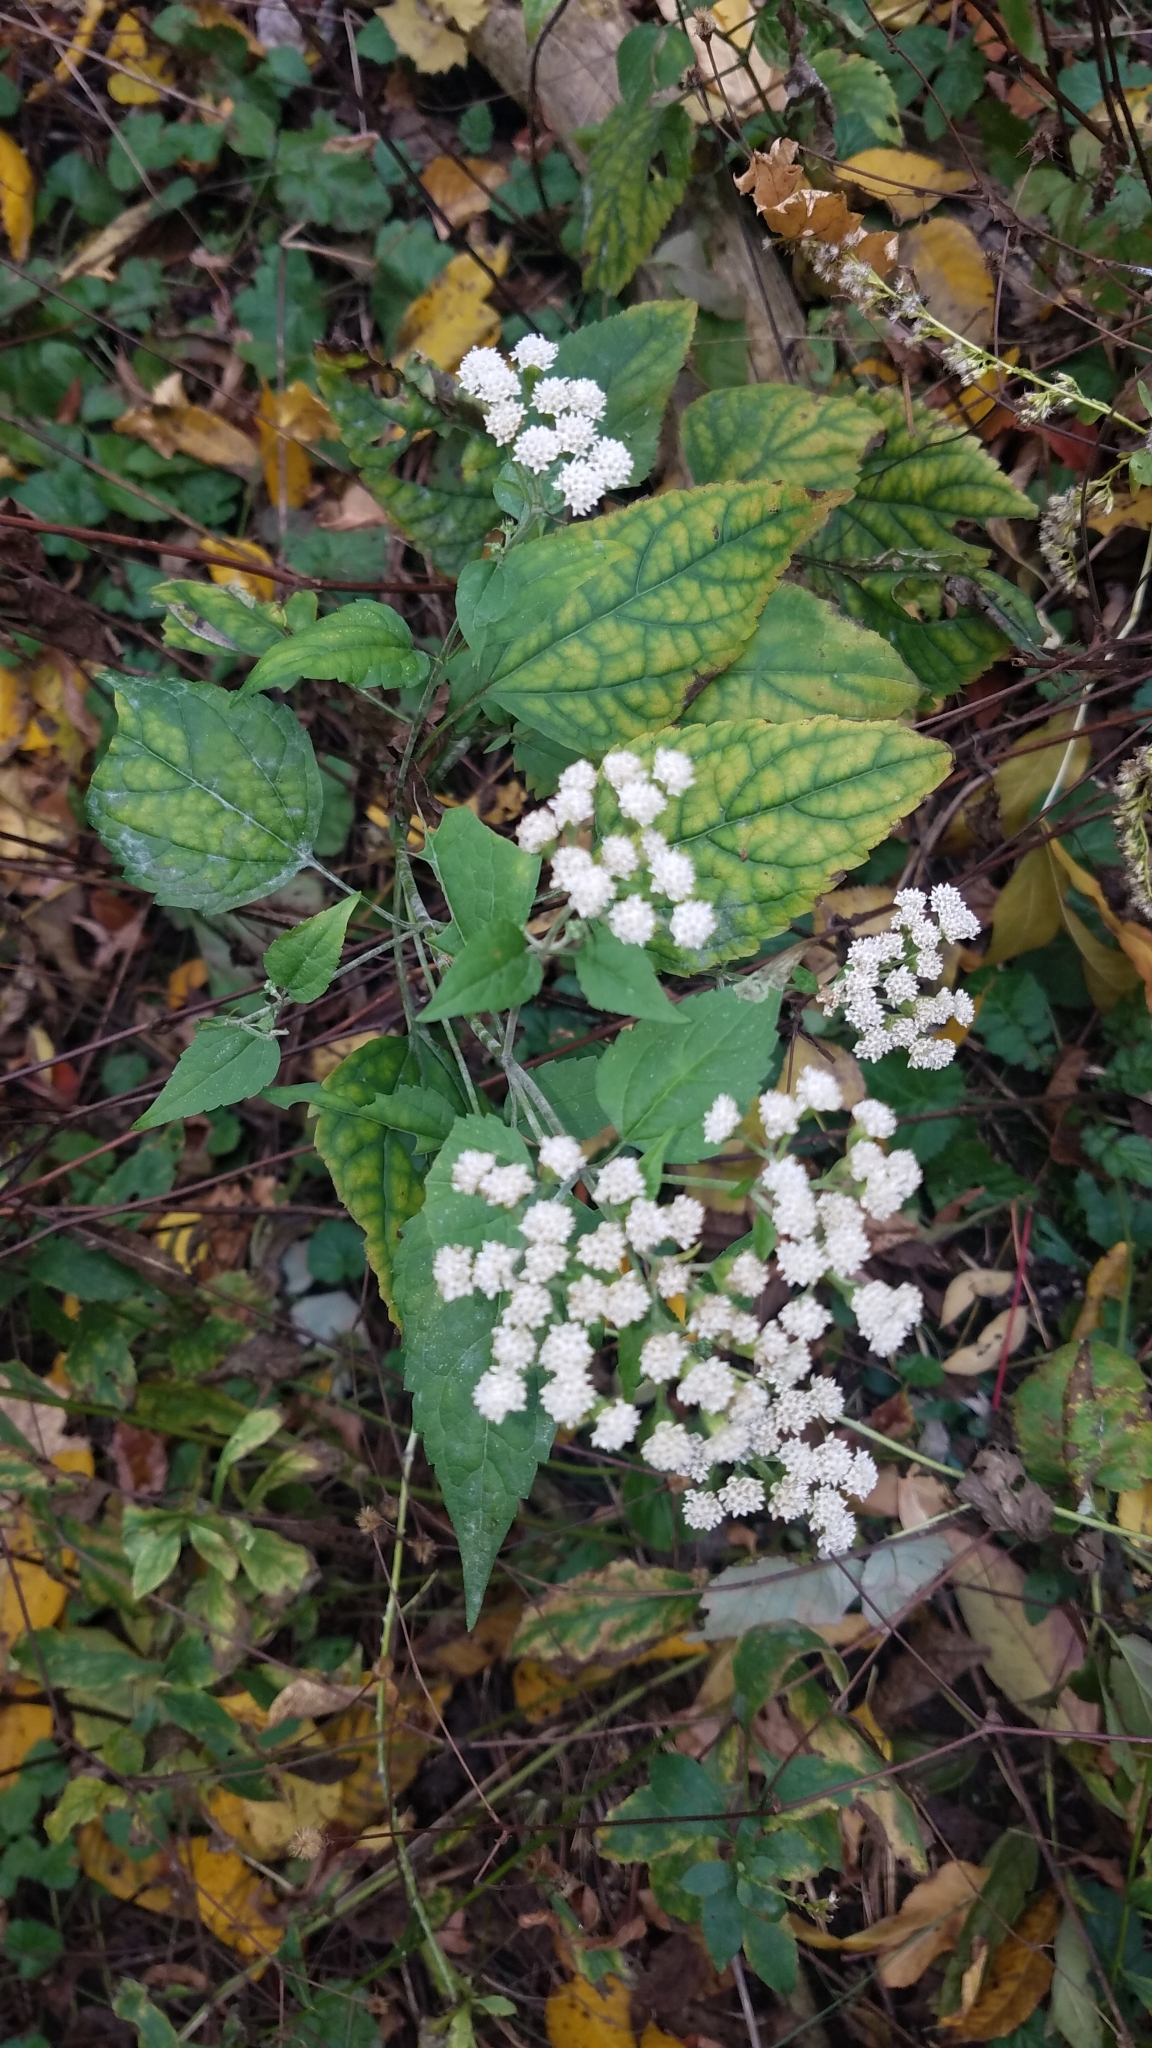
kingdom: Plantae
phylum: Tracheophyta
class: Magnoliopsida
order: Asterales
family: Asteraceae
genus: Ageratina
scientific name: Ageratina altissima
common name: White snakeroot
